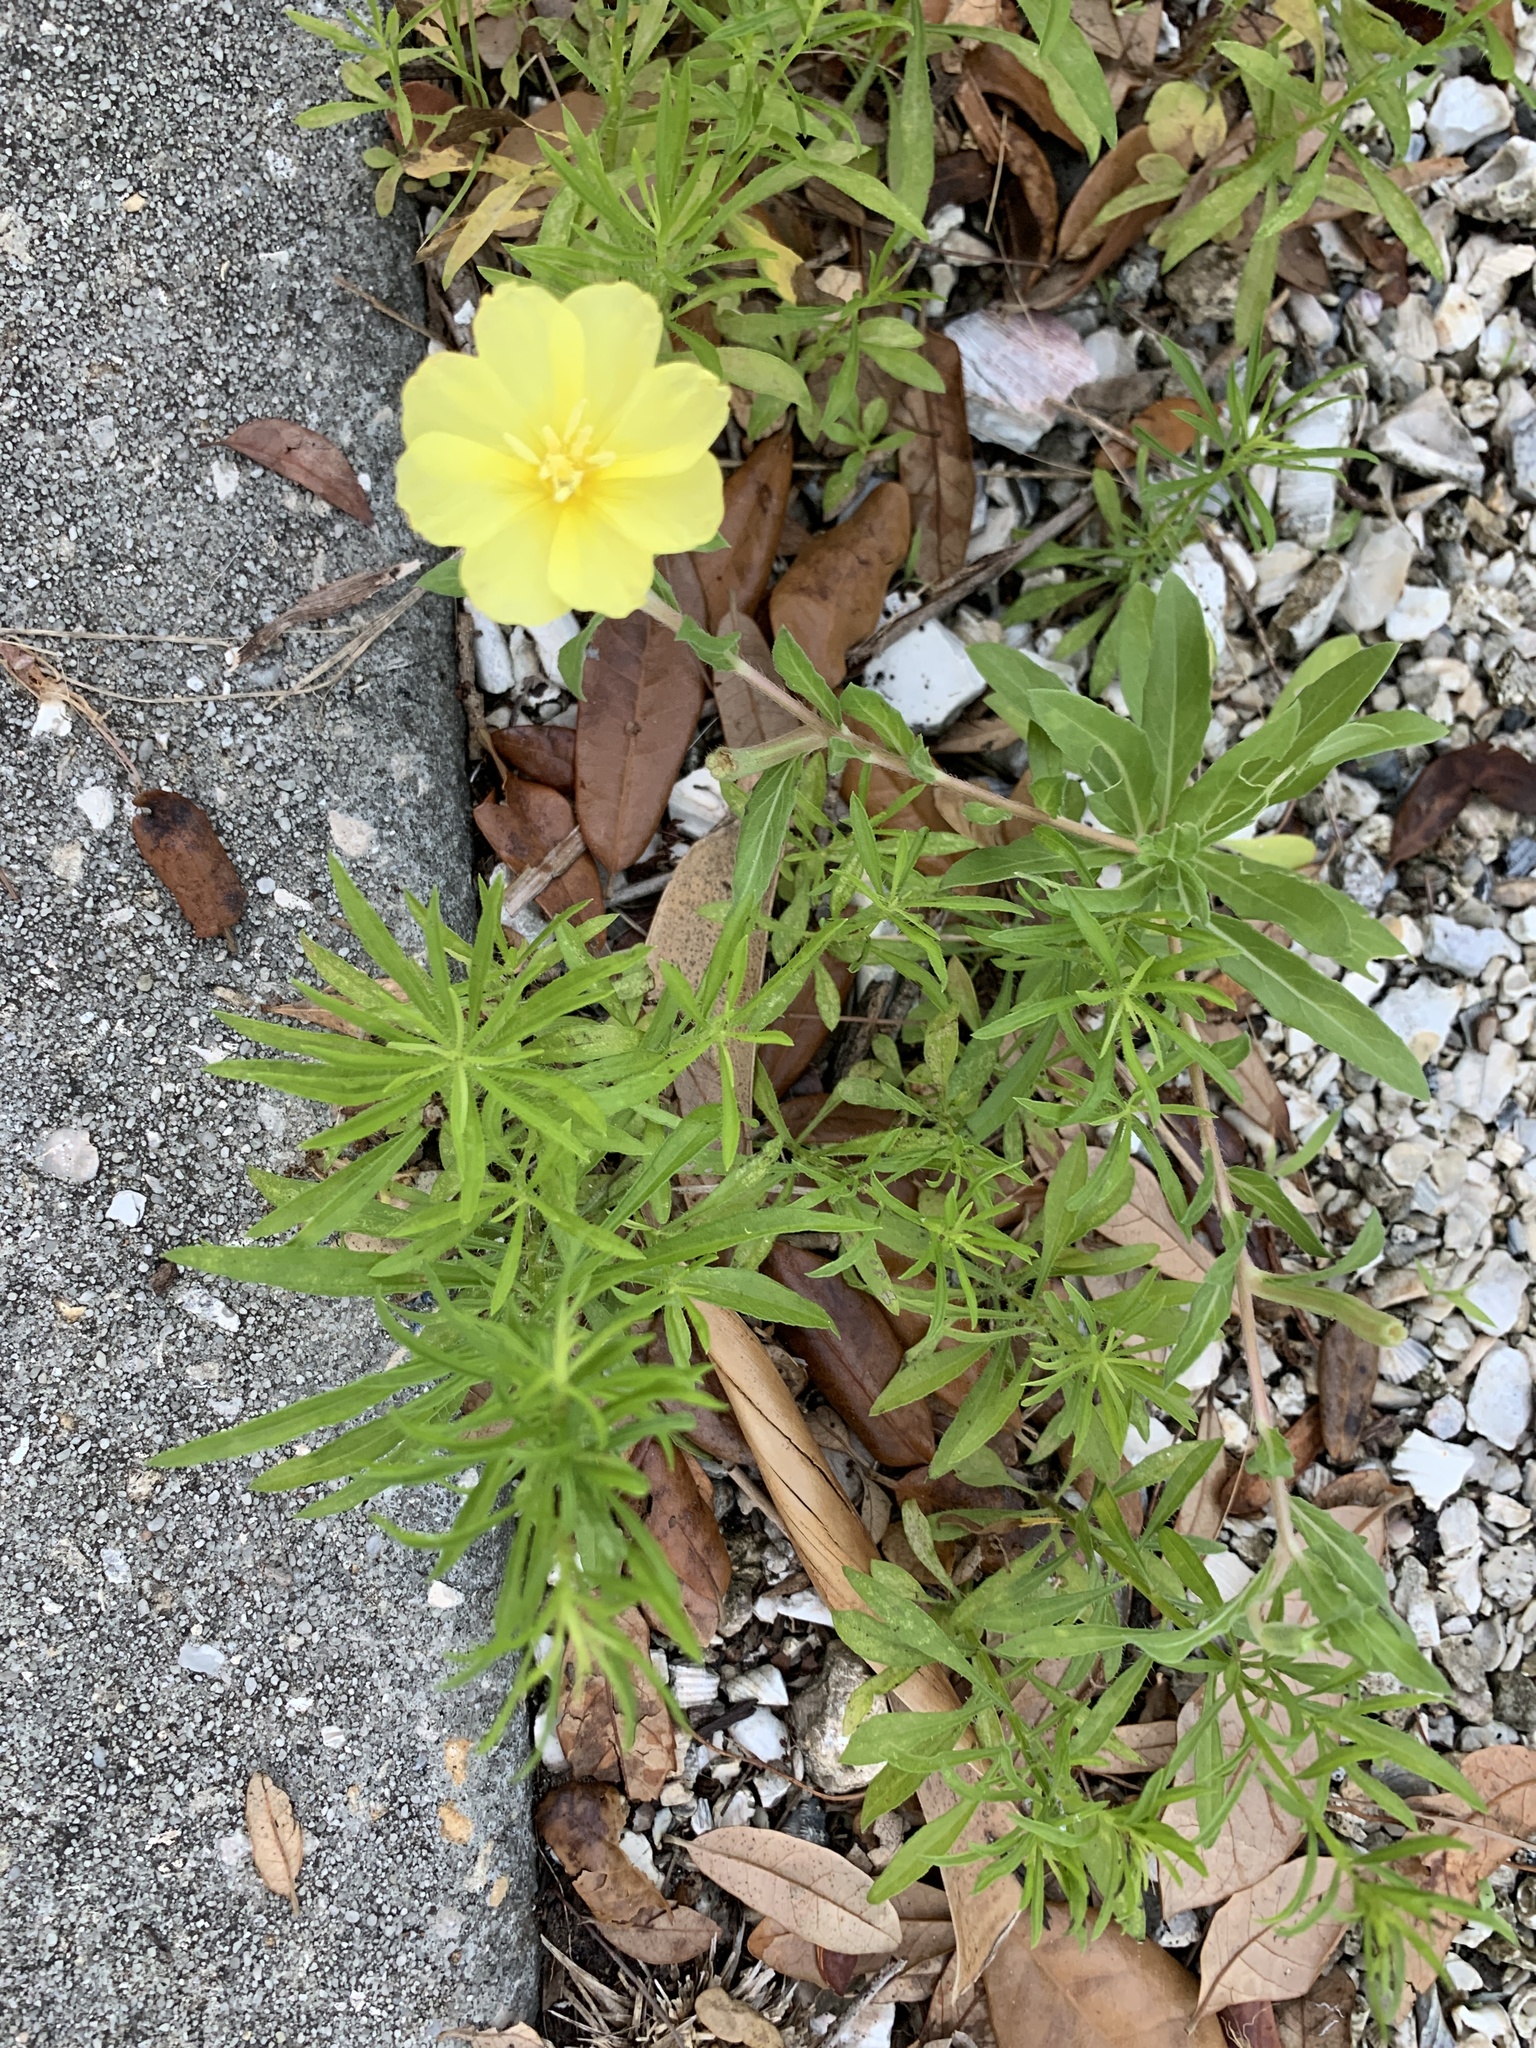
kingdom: Plantae
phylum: Tracheophyta
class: Magnoliopsida
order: Myrtales
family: Onagraceae
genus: Oenothera
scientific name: Oenothera humifusa
